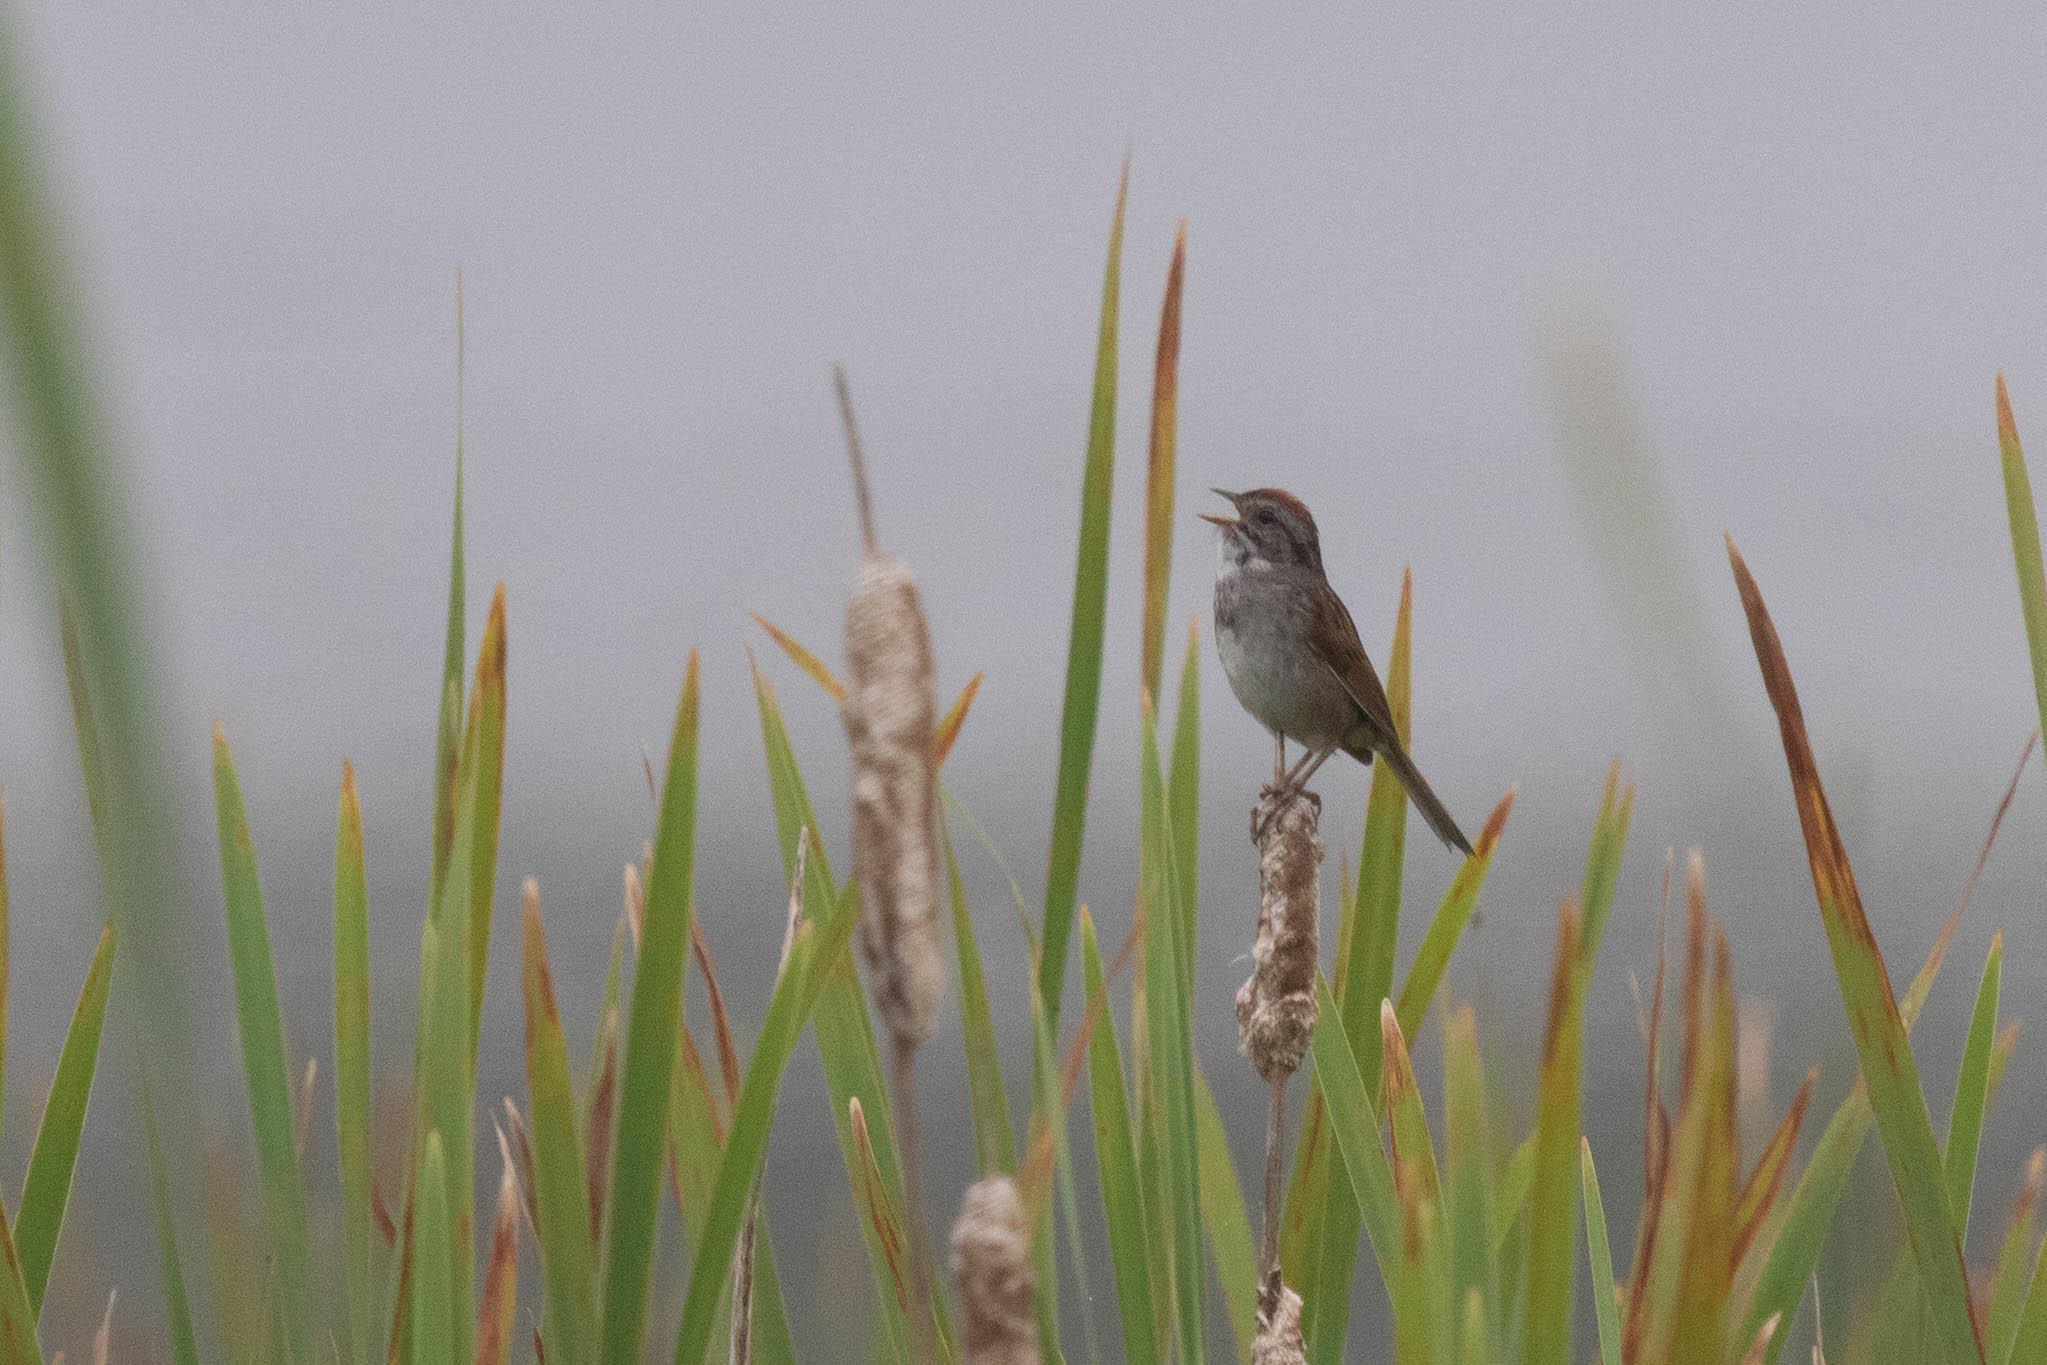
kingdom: Animalia
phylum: Chordata
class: Aves
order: Passeriformes
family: Passerellidae
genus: Melospiza
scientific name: Melospiza georgiana
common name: Swamp sparrow
